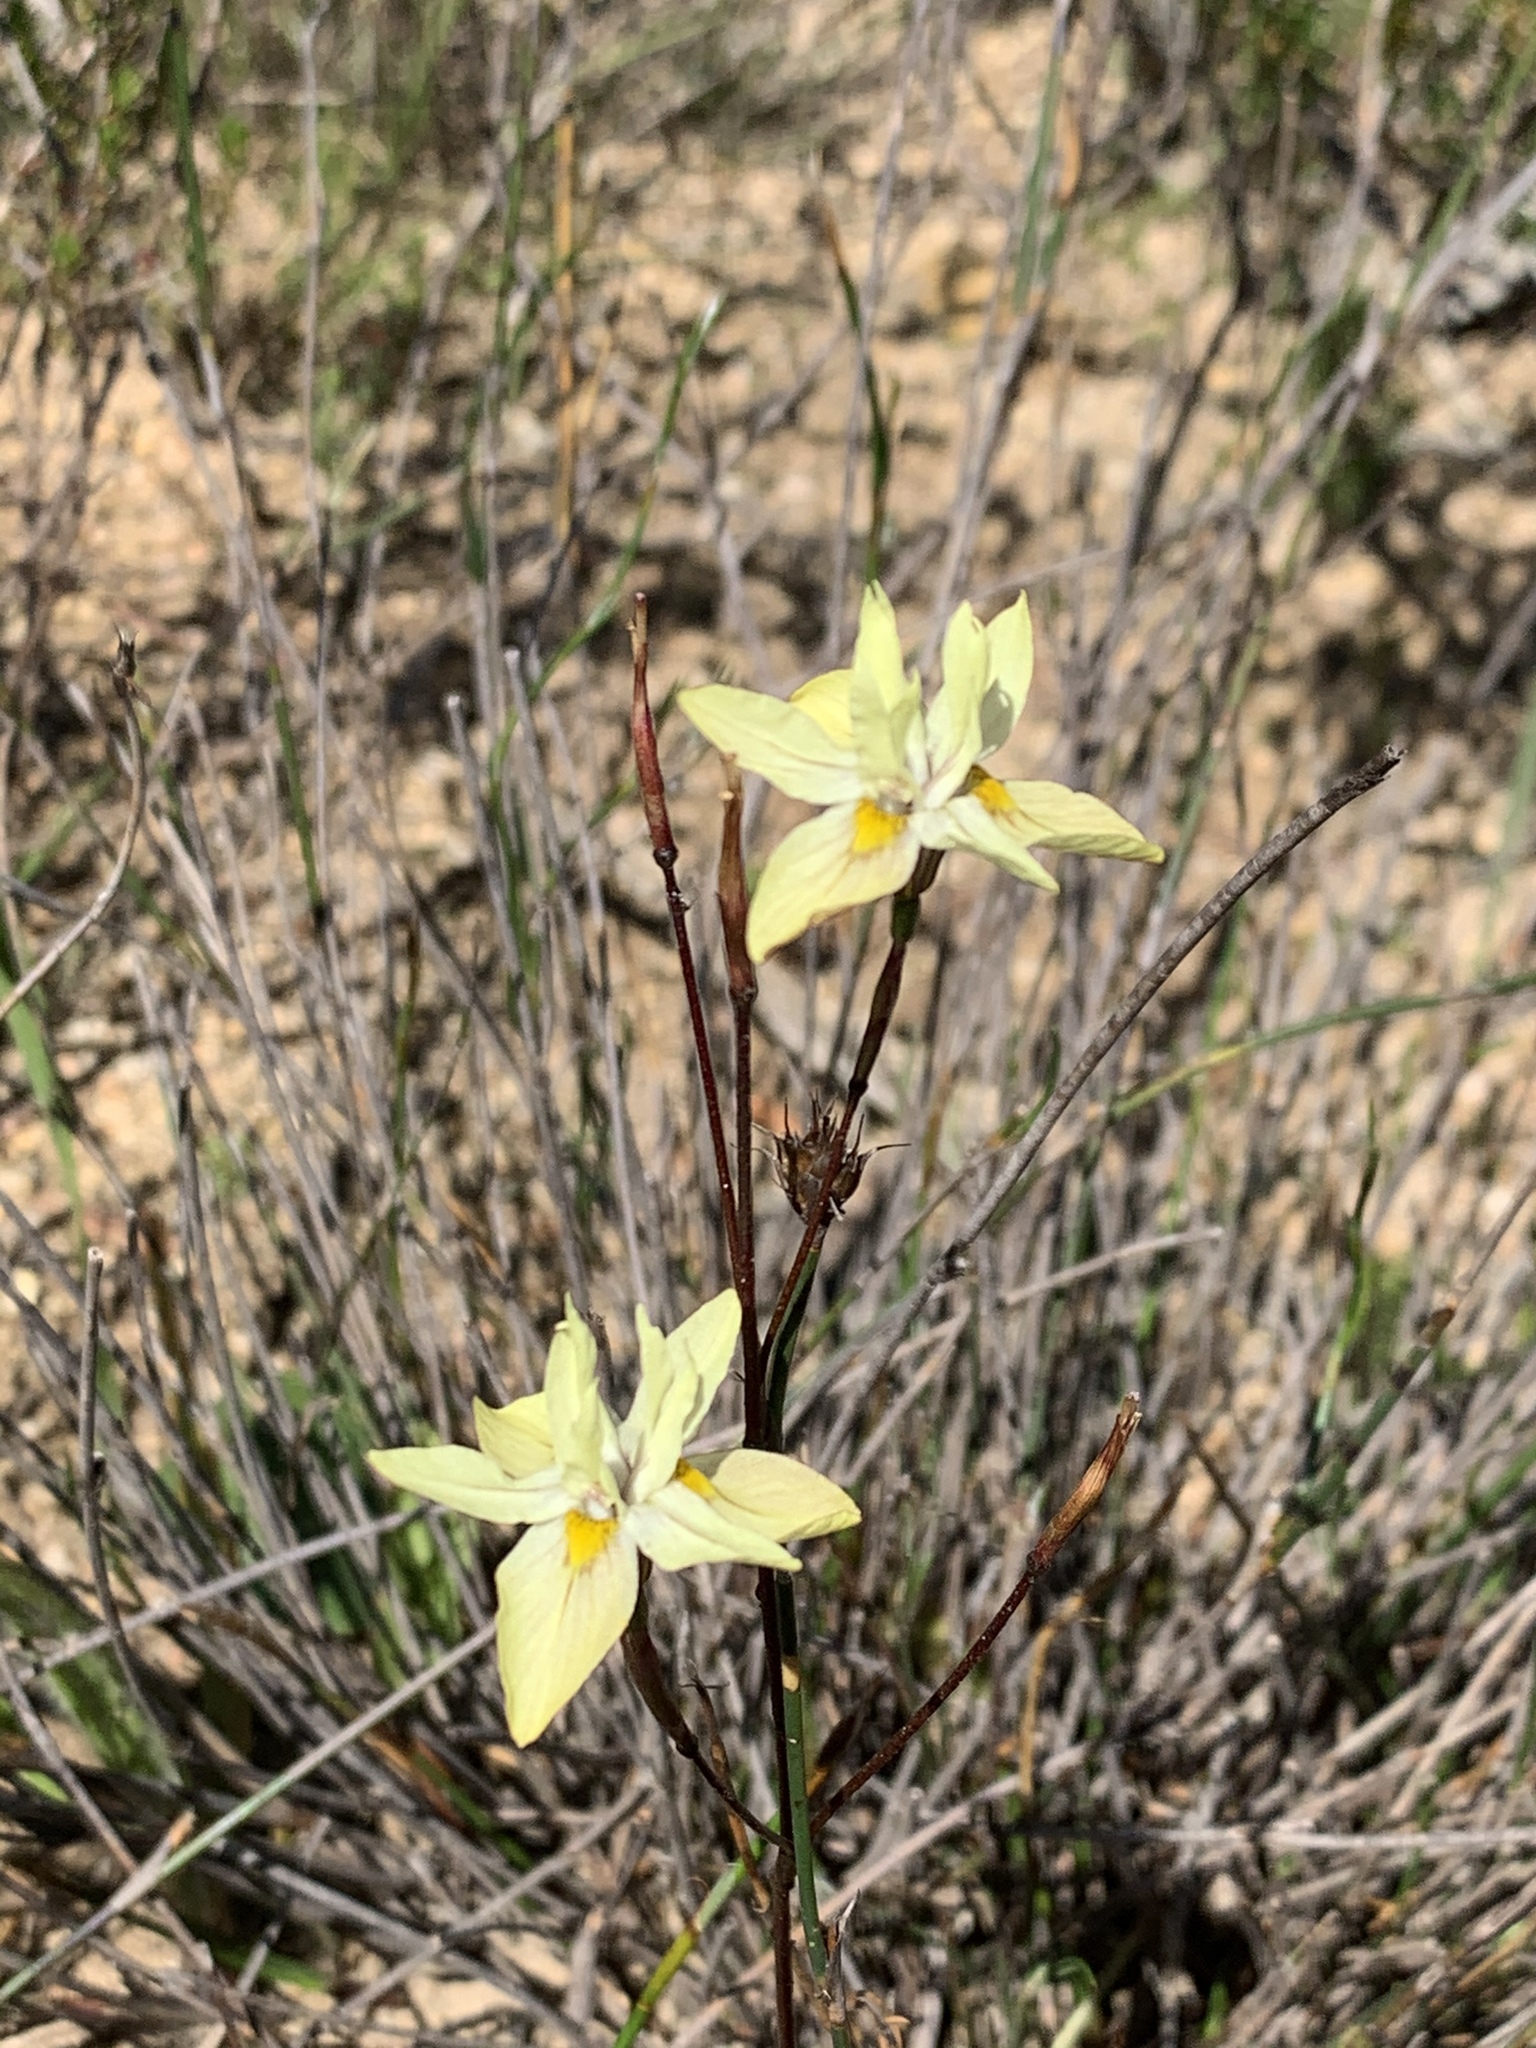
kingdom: Plantae
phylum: Tracheophyta
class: Liliopsida
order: Asparagales
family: Iridaceae
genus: Moraea
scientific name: Moraea gawleri
